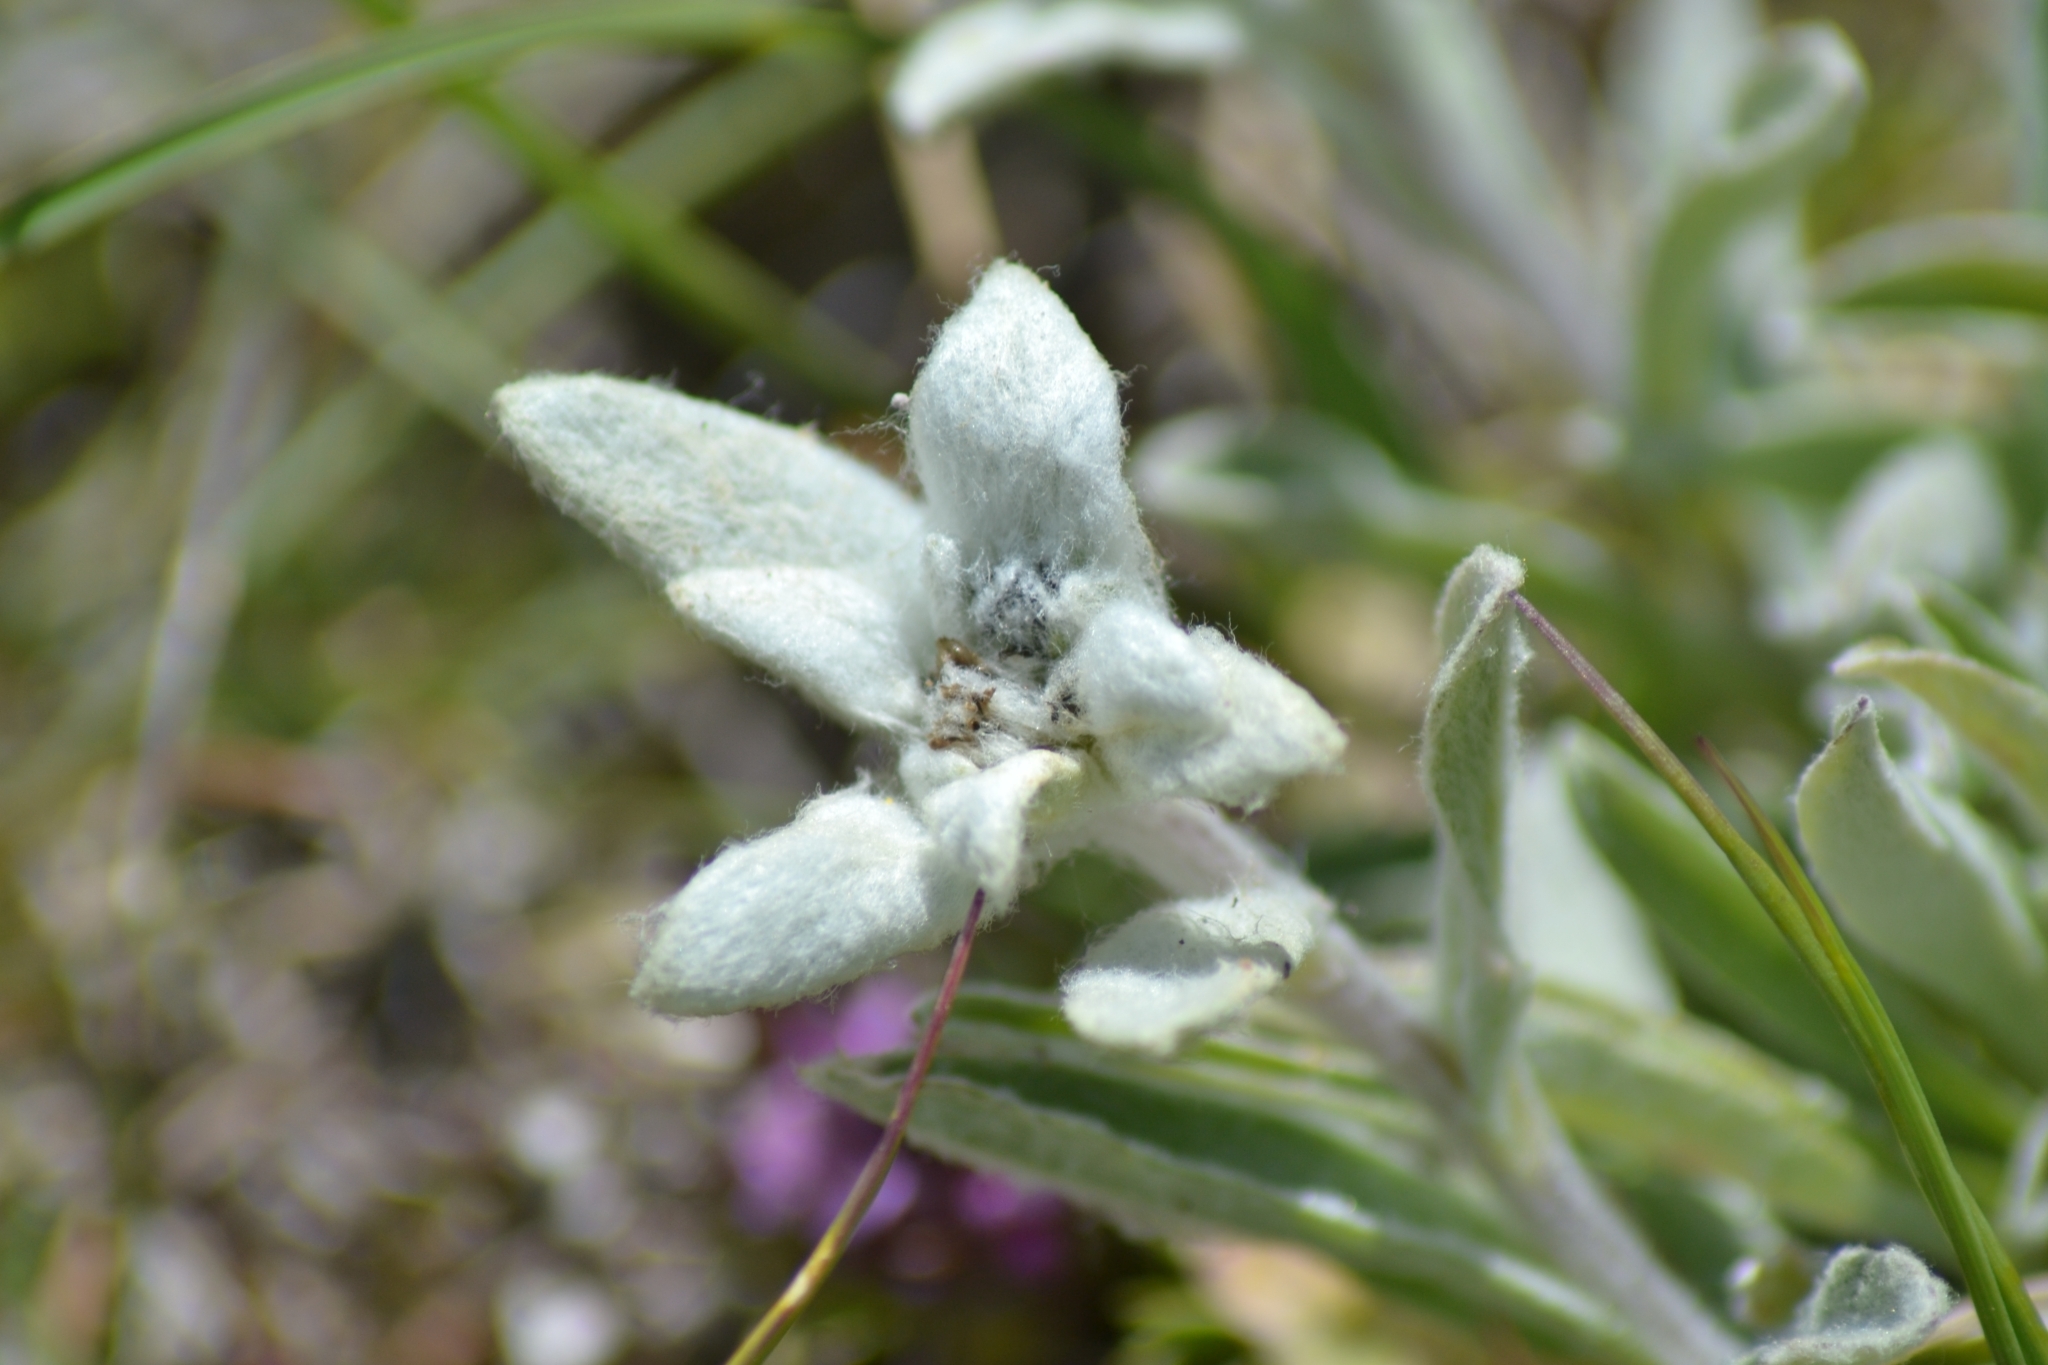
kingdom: Plantae
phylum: Tracheophyta
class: Magnoliopsida
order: Asterales
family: Asteraceae
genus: Leontopodium
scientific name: Leontopodium nivale
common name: Edelweiss
